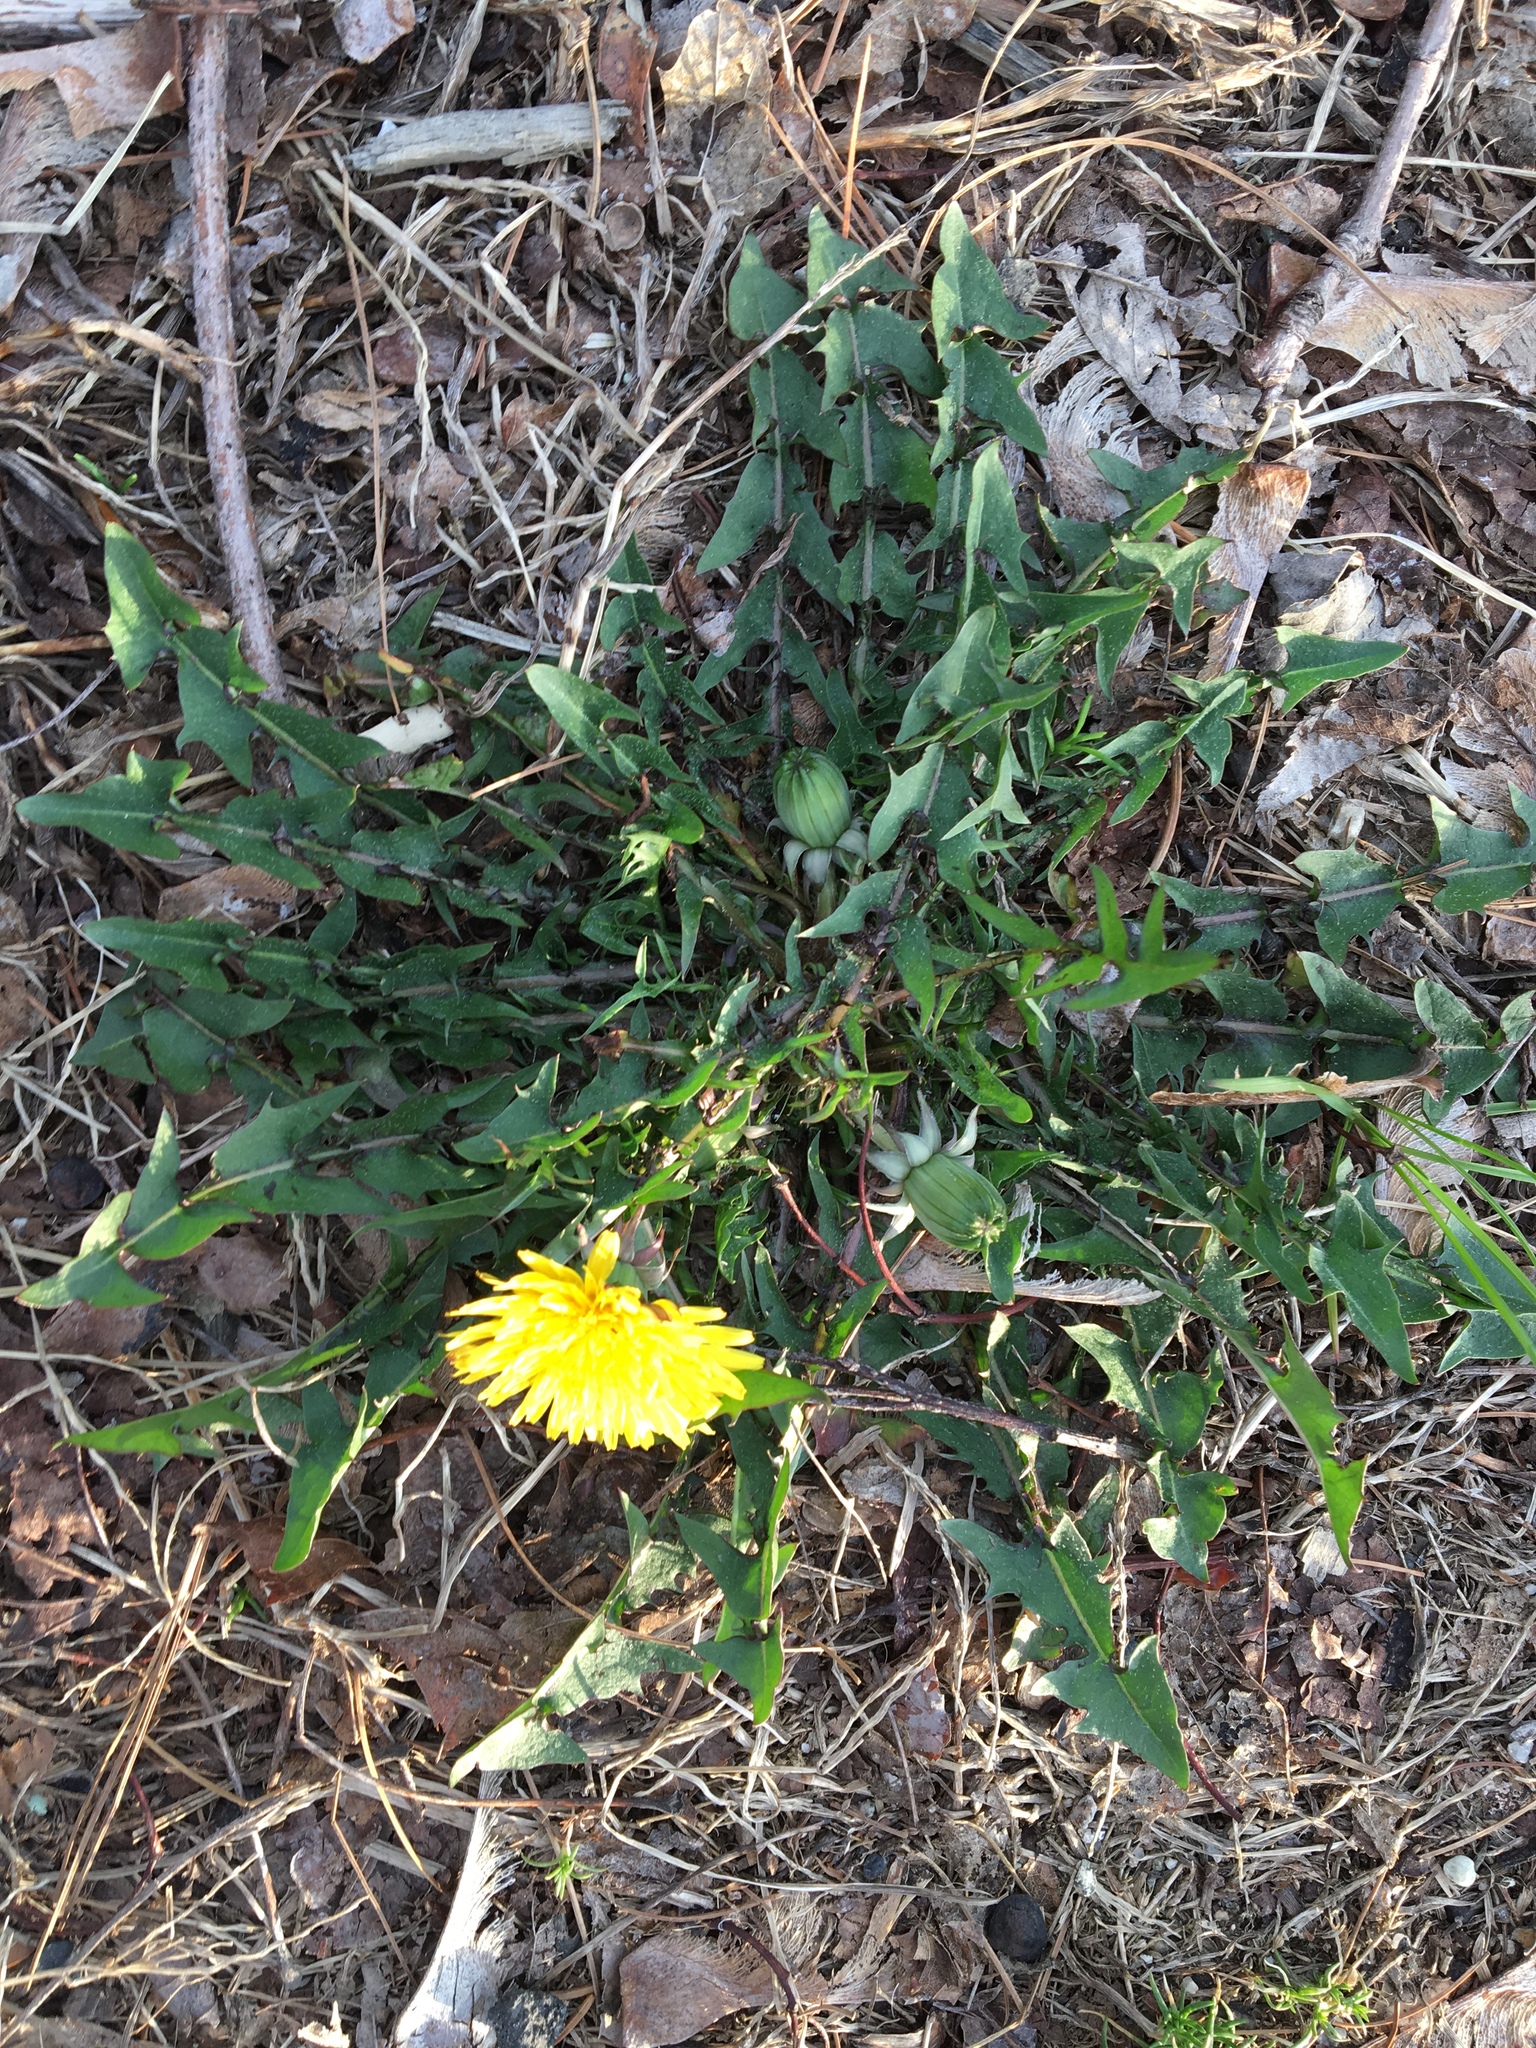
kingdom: Plantae
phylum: Tracheophyta
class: Magnoliopsida
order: Asterales
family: Asteraceae
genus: Taraxacum
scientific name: Taraxacum officinale
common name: Common dandelion
